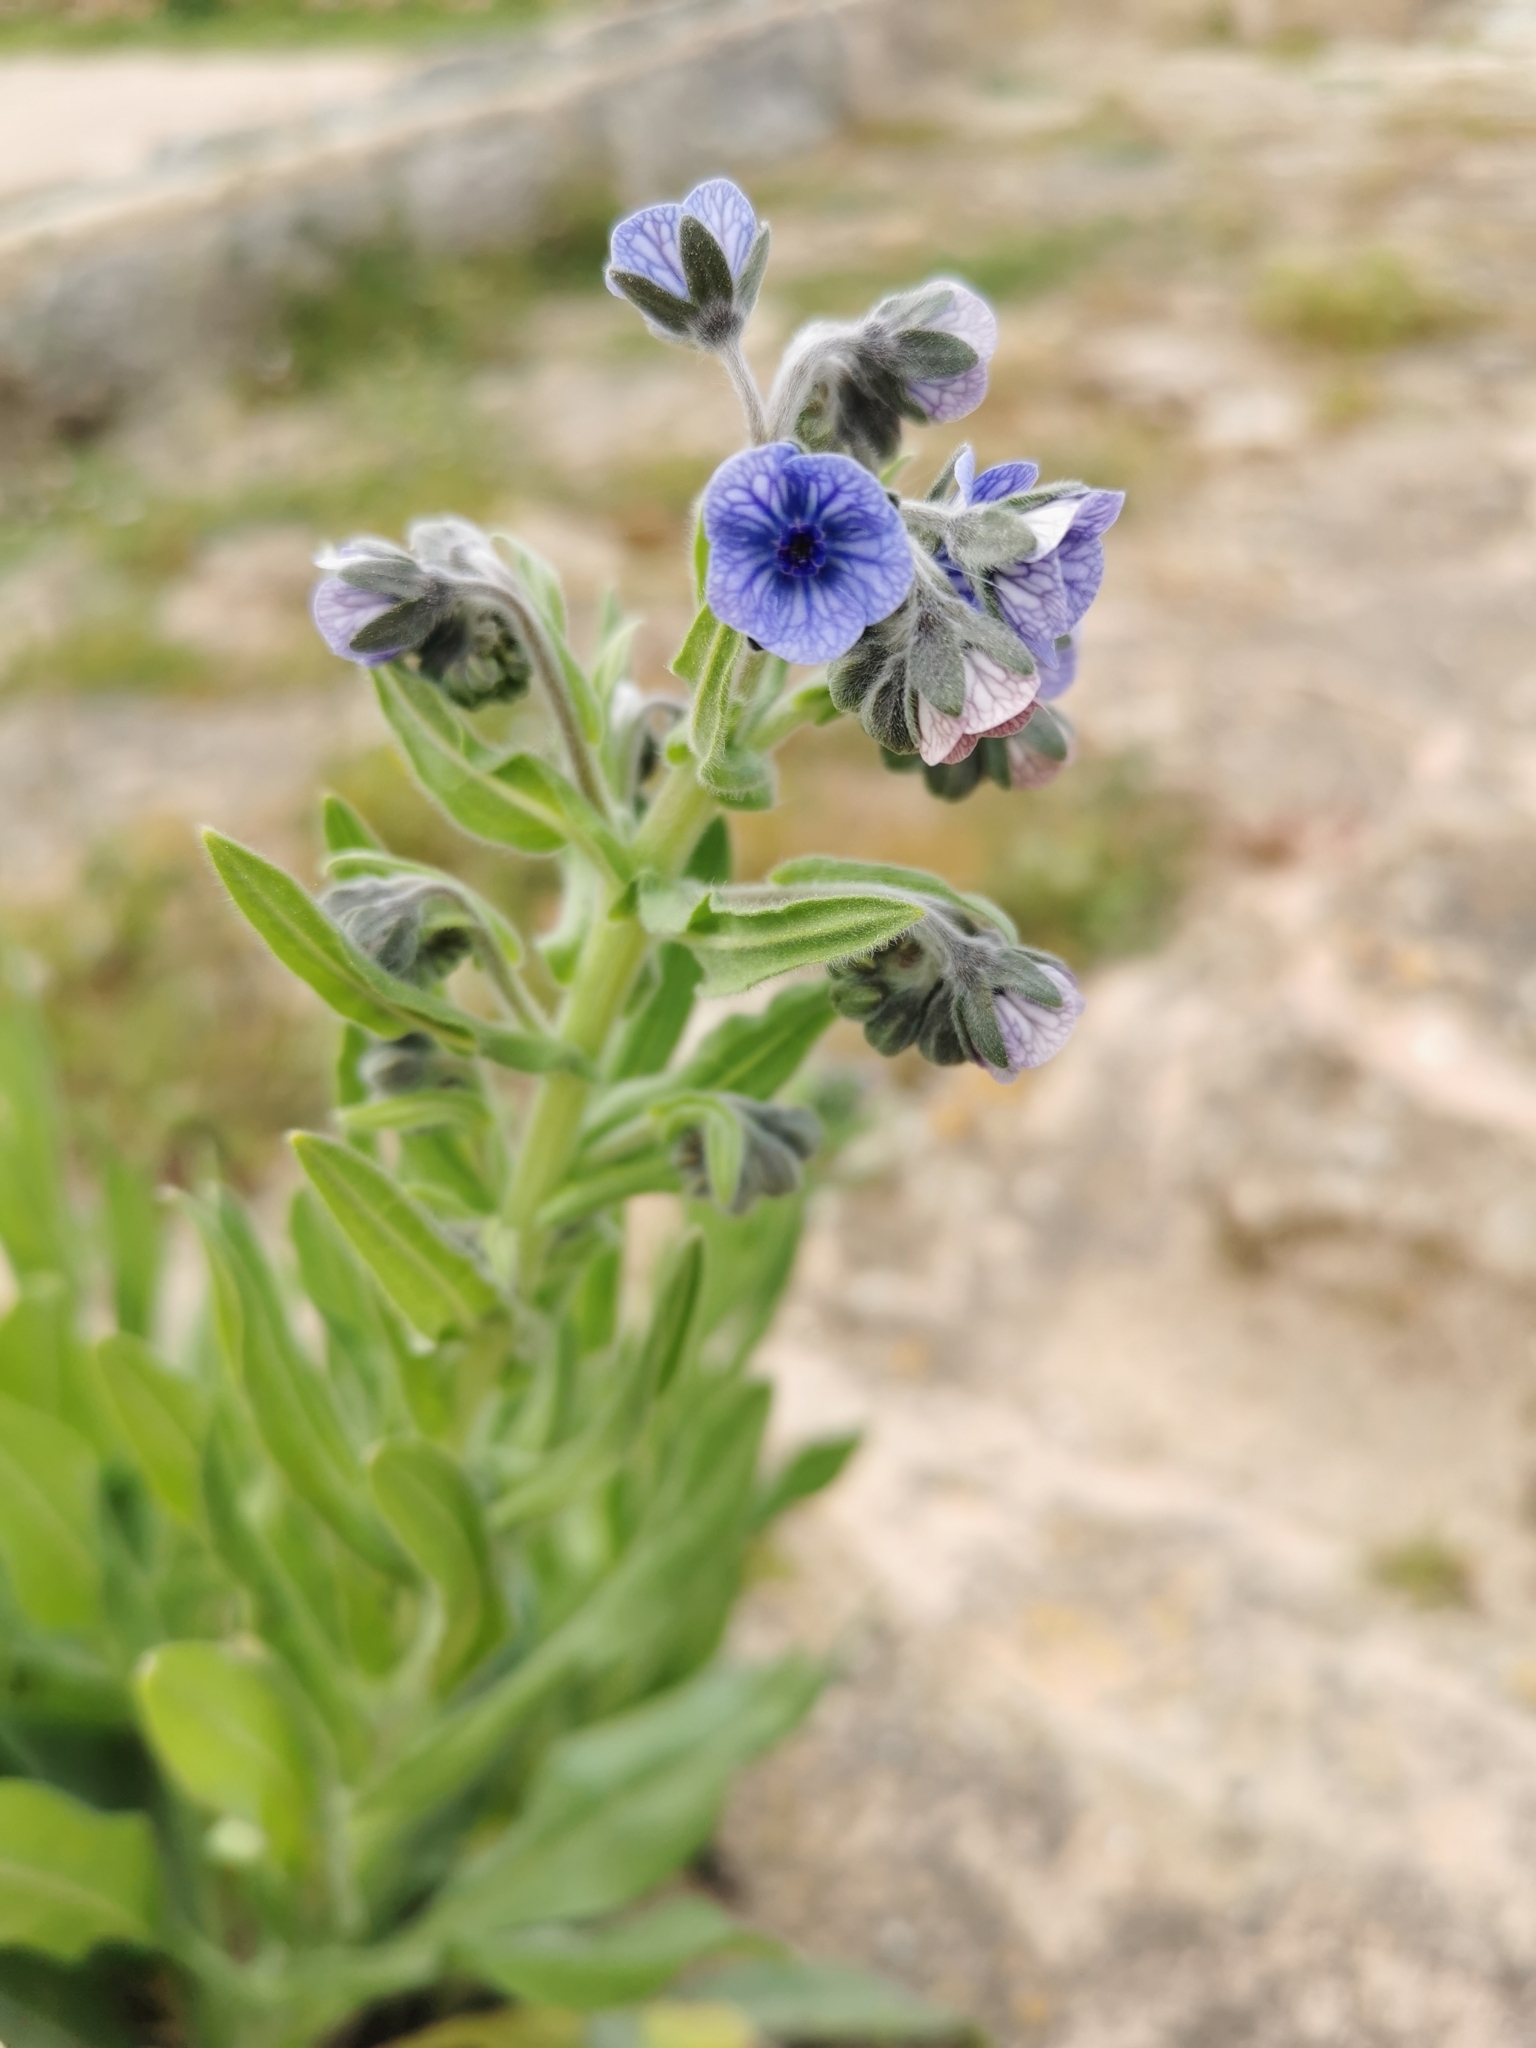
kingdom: Plantae
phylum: Tracheophyta
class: Magnoliopsida
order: Boraginales
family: Boraginaceae
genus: Cynoglossum
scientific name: Cynoglossum creticum
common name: Blue hound's tongue
